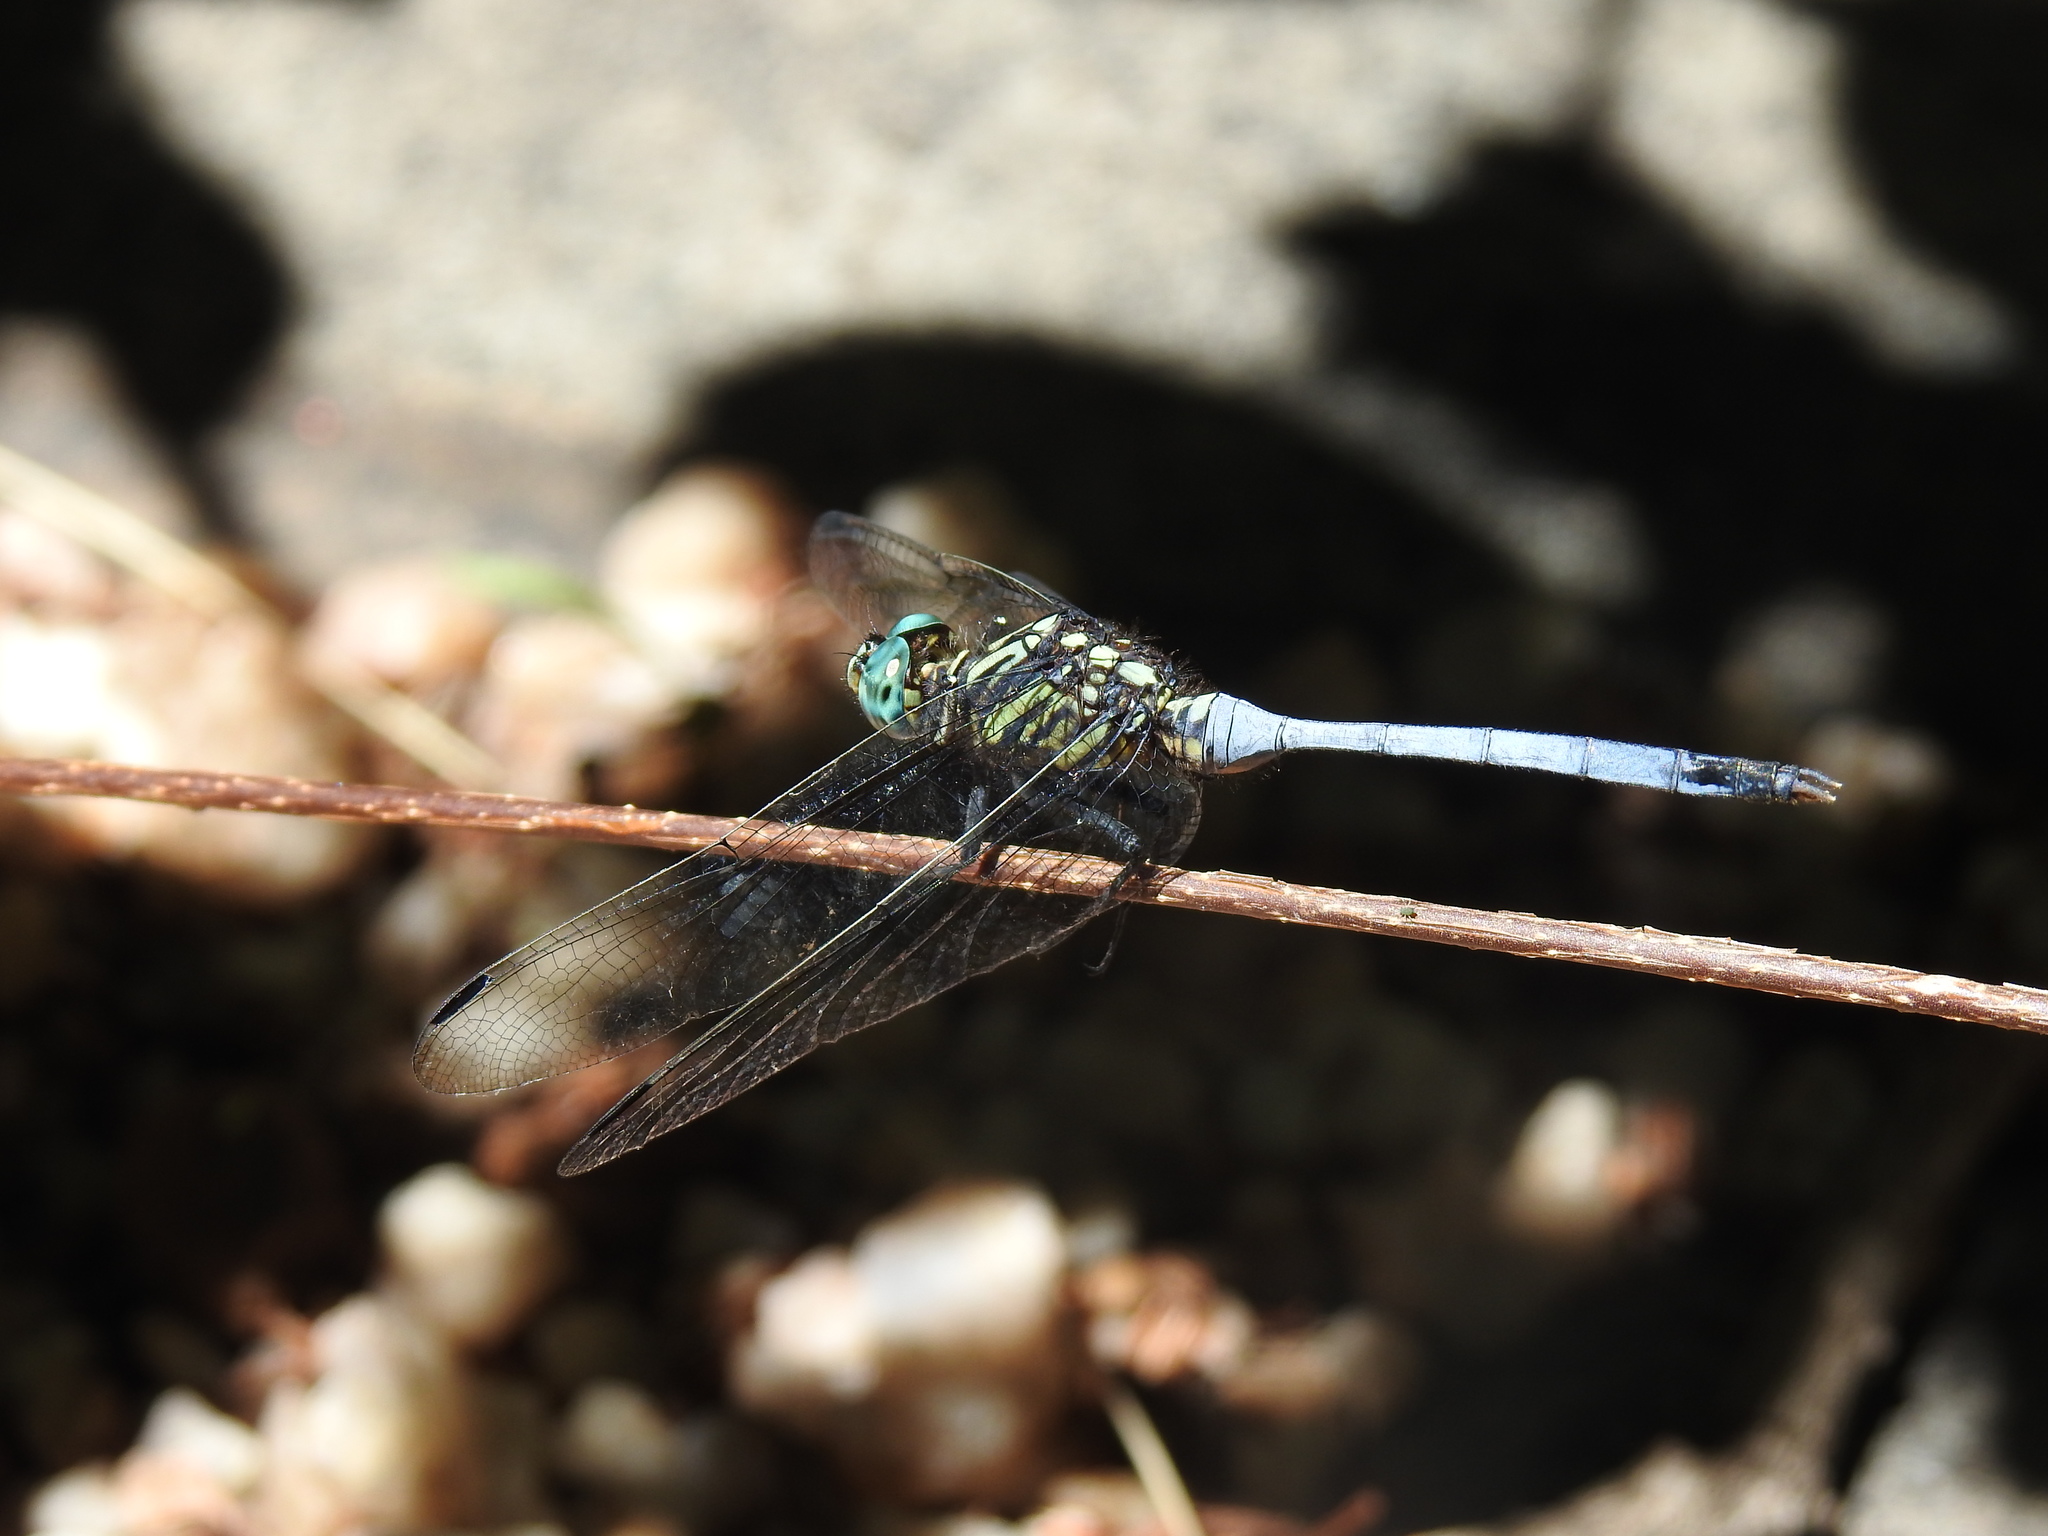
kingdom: Animalia
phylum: Arthropoda
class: Insecta
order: Odonata
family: Libellulidae
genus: Orthetrum
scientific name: Orthetrum julia
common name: Julia skimmer
